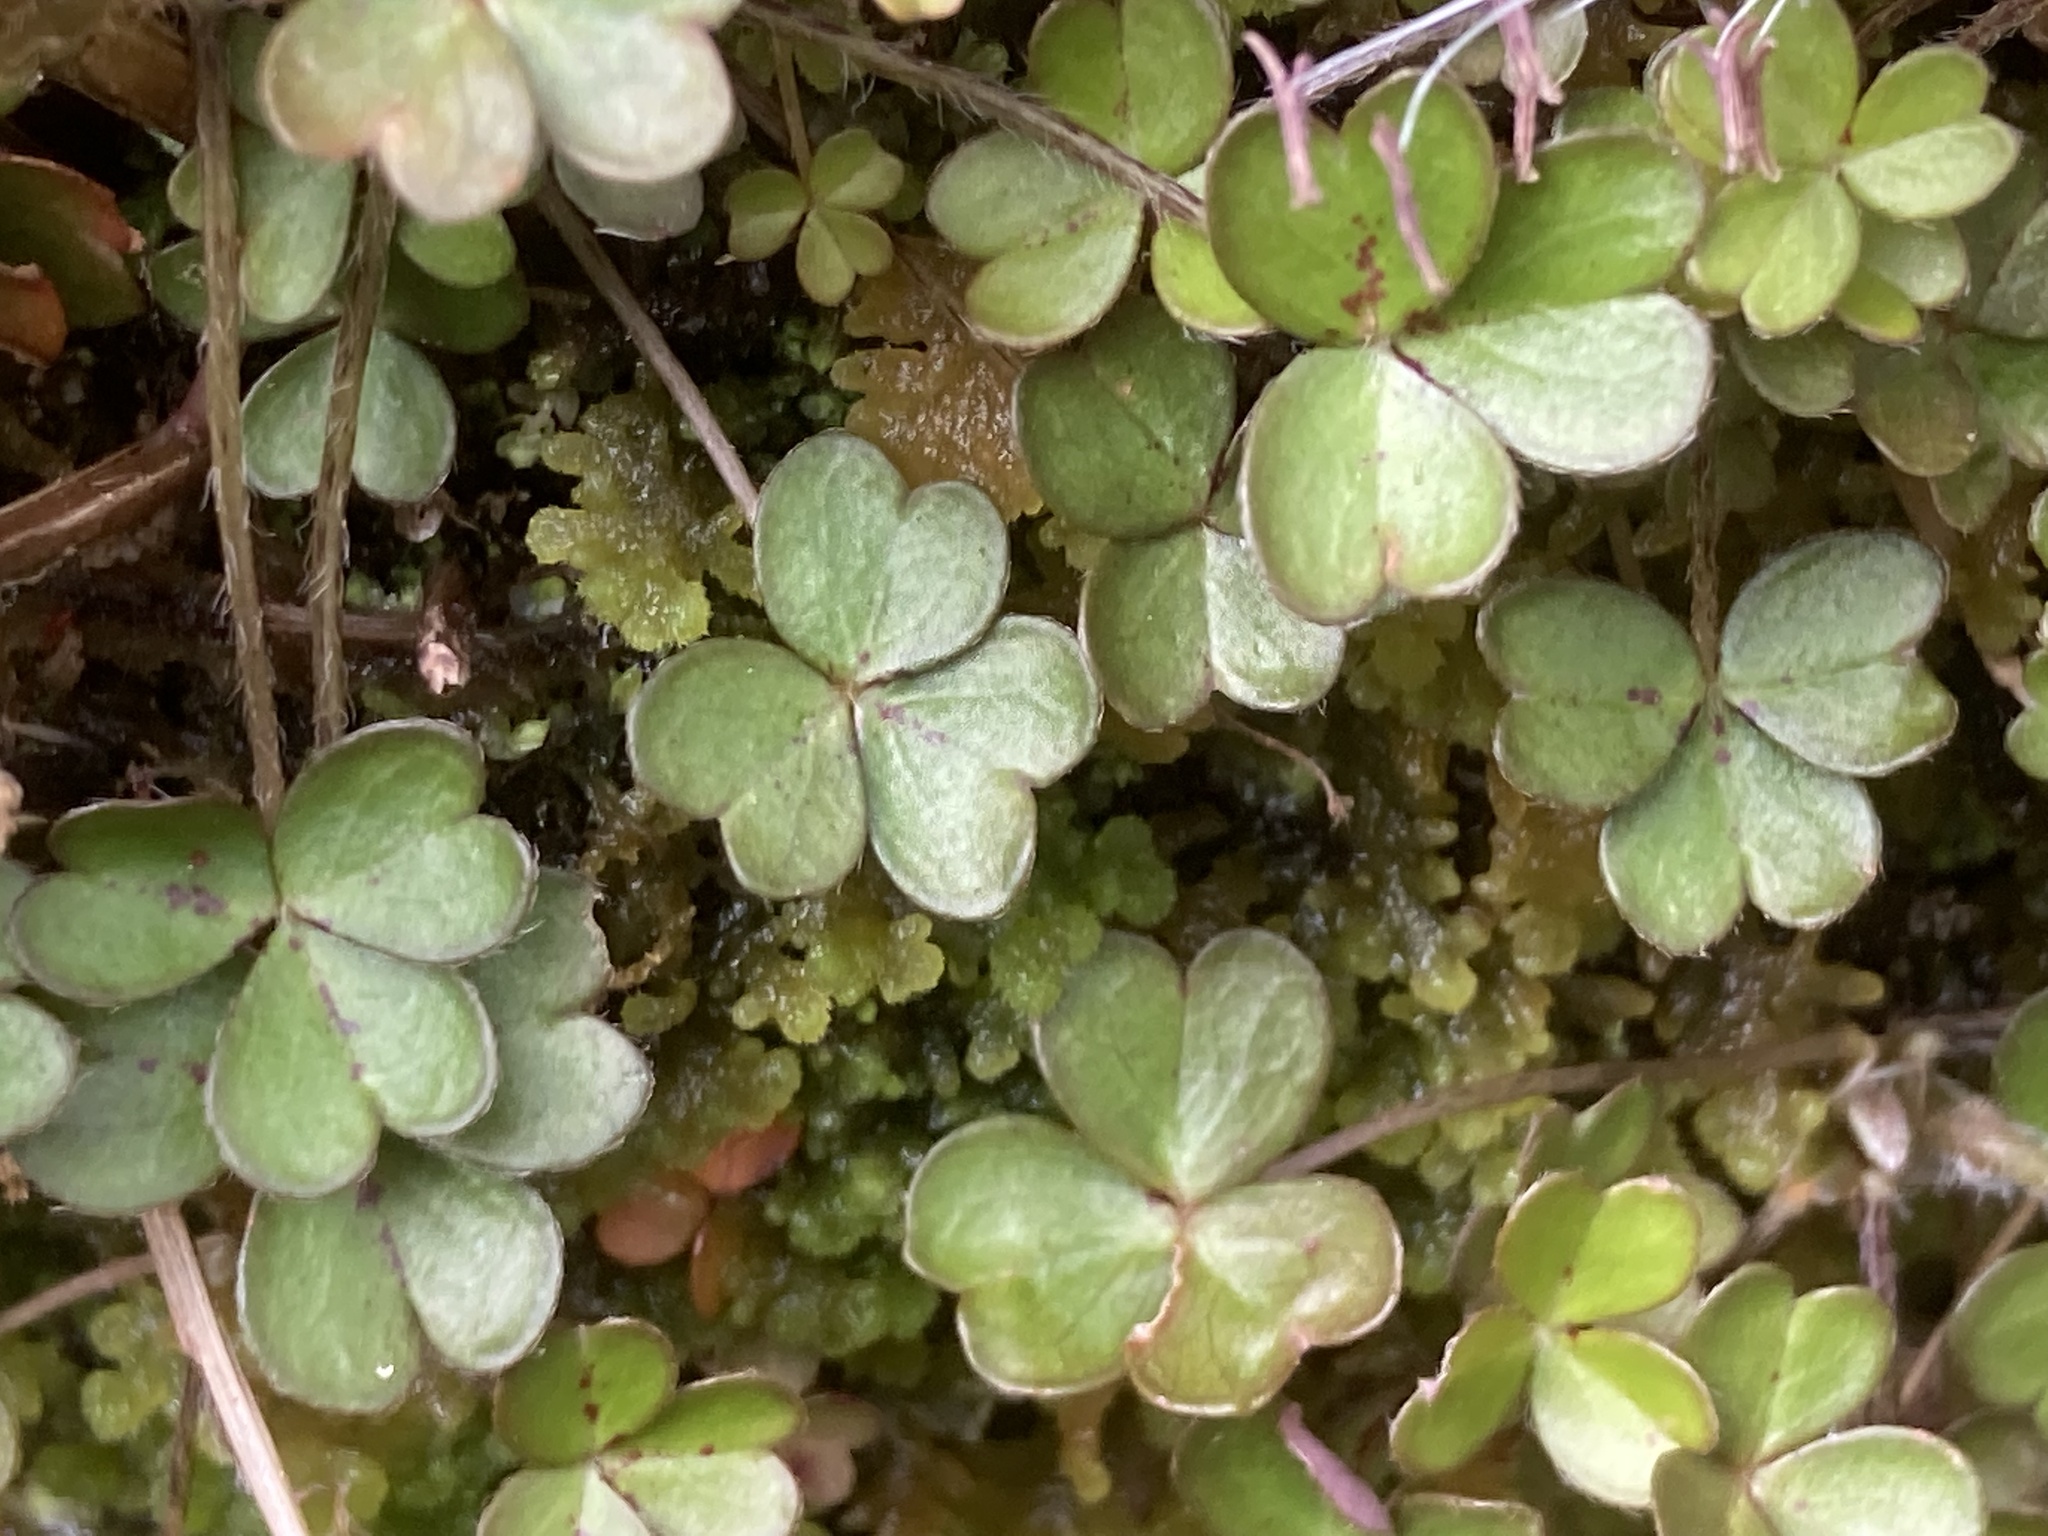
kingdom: Plantae
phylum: Tracheophyta
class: Magnoliopsida
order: Oxalidales
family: Oxalidaceae
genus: Oxalis
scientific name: Oxalis magellanica
